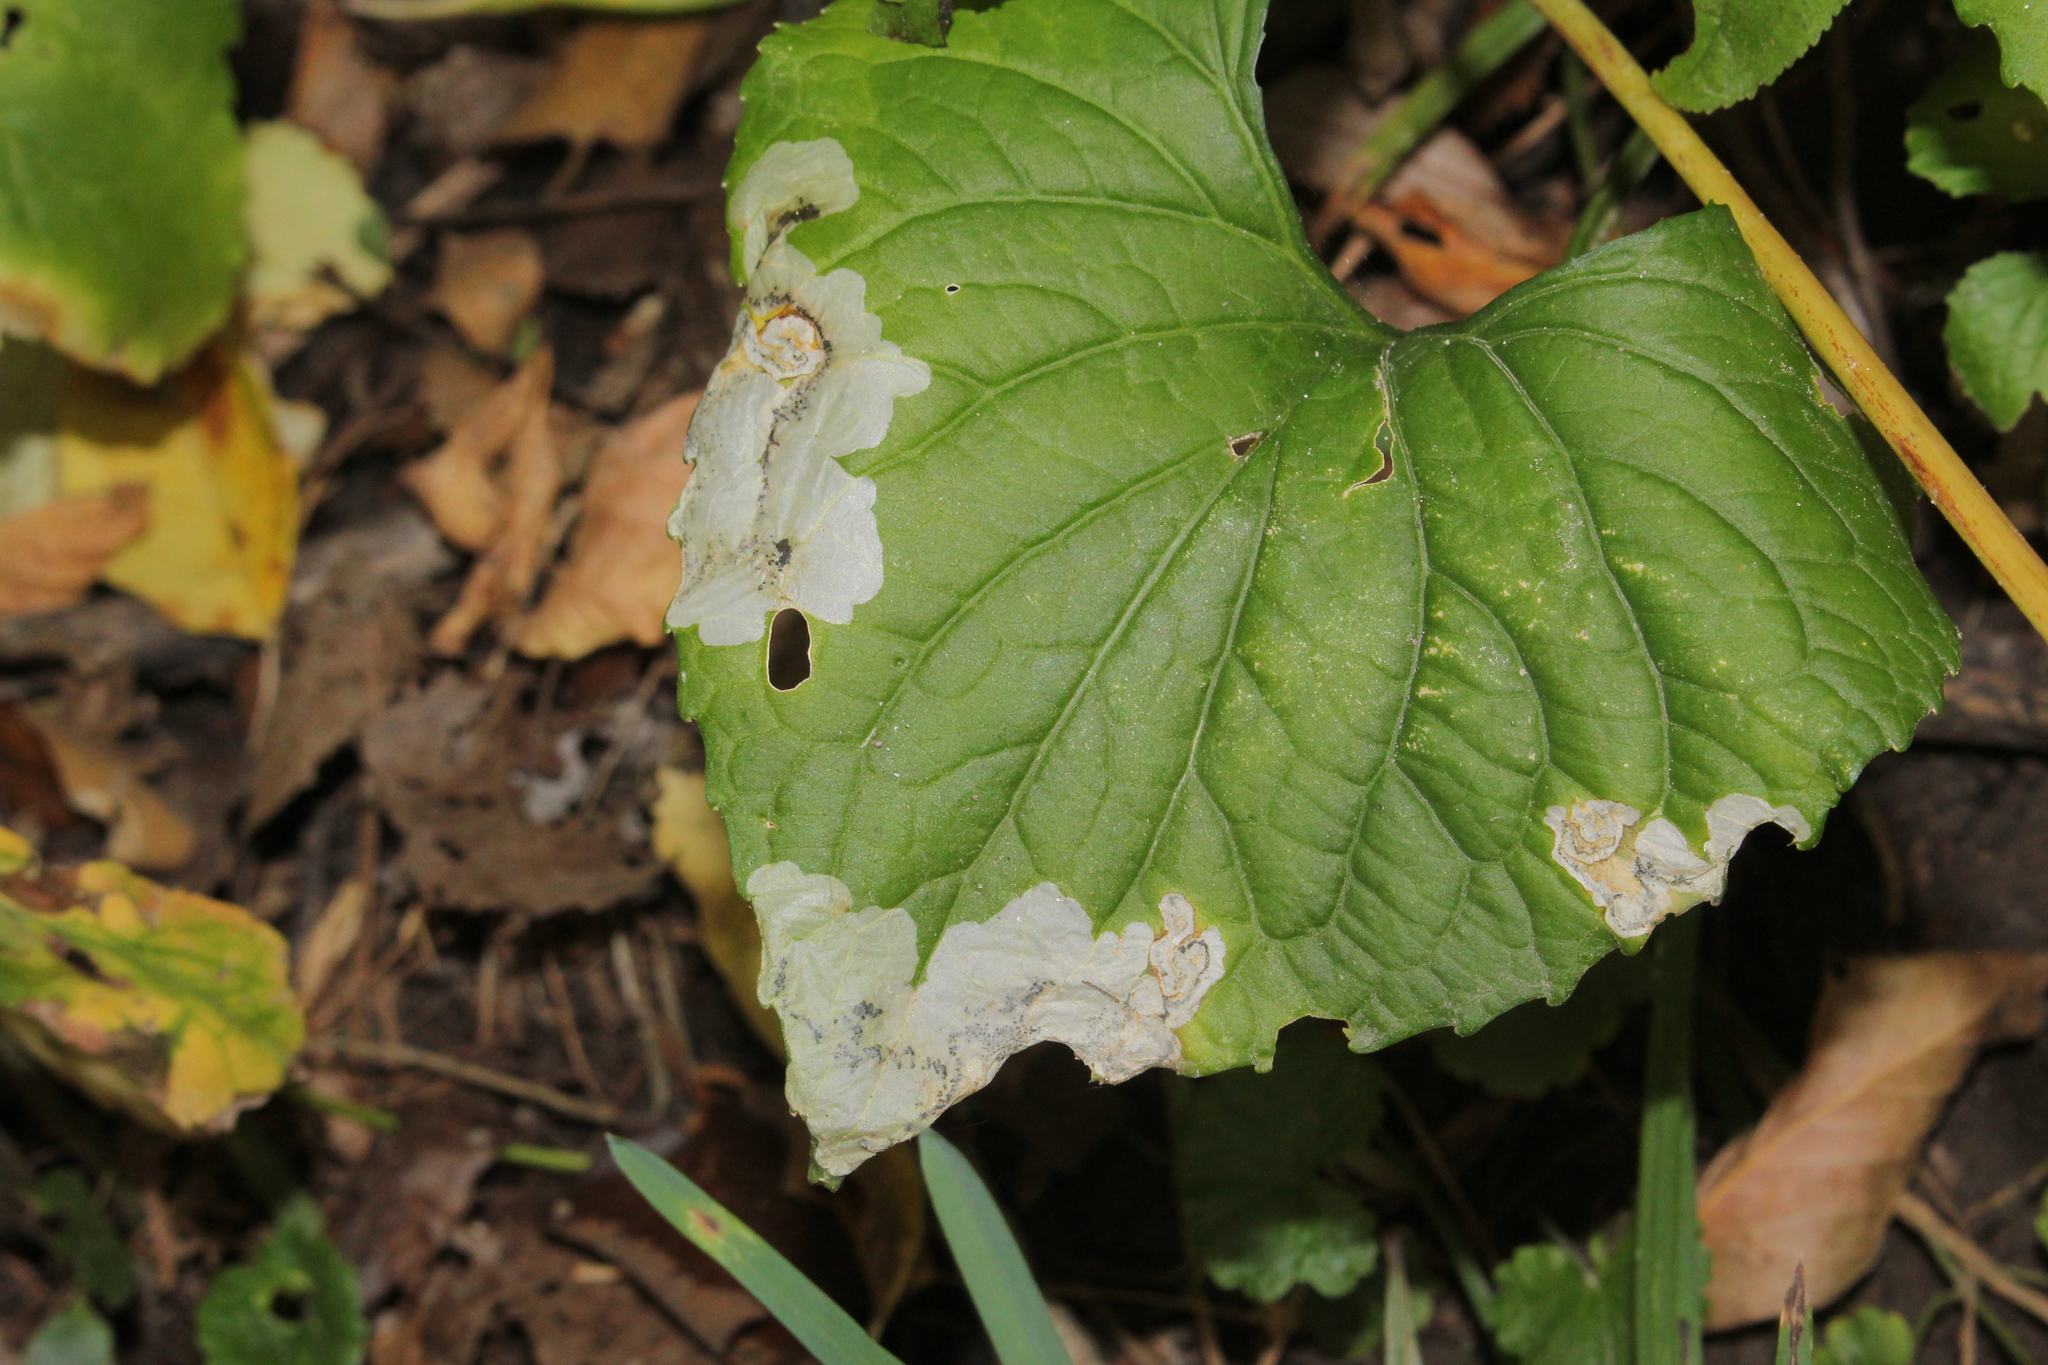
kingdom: Animalia
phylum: Arthropoda
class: Insecta
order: Hymenoptera
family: Tenthredinidae
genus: Nefusa
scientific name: Nefusa ambigua
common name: Violet leafmining sawfly
